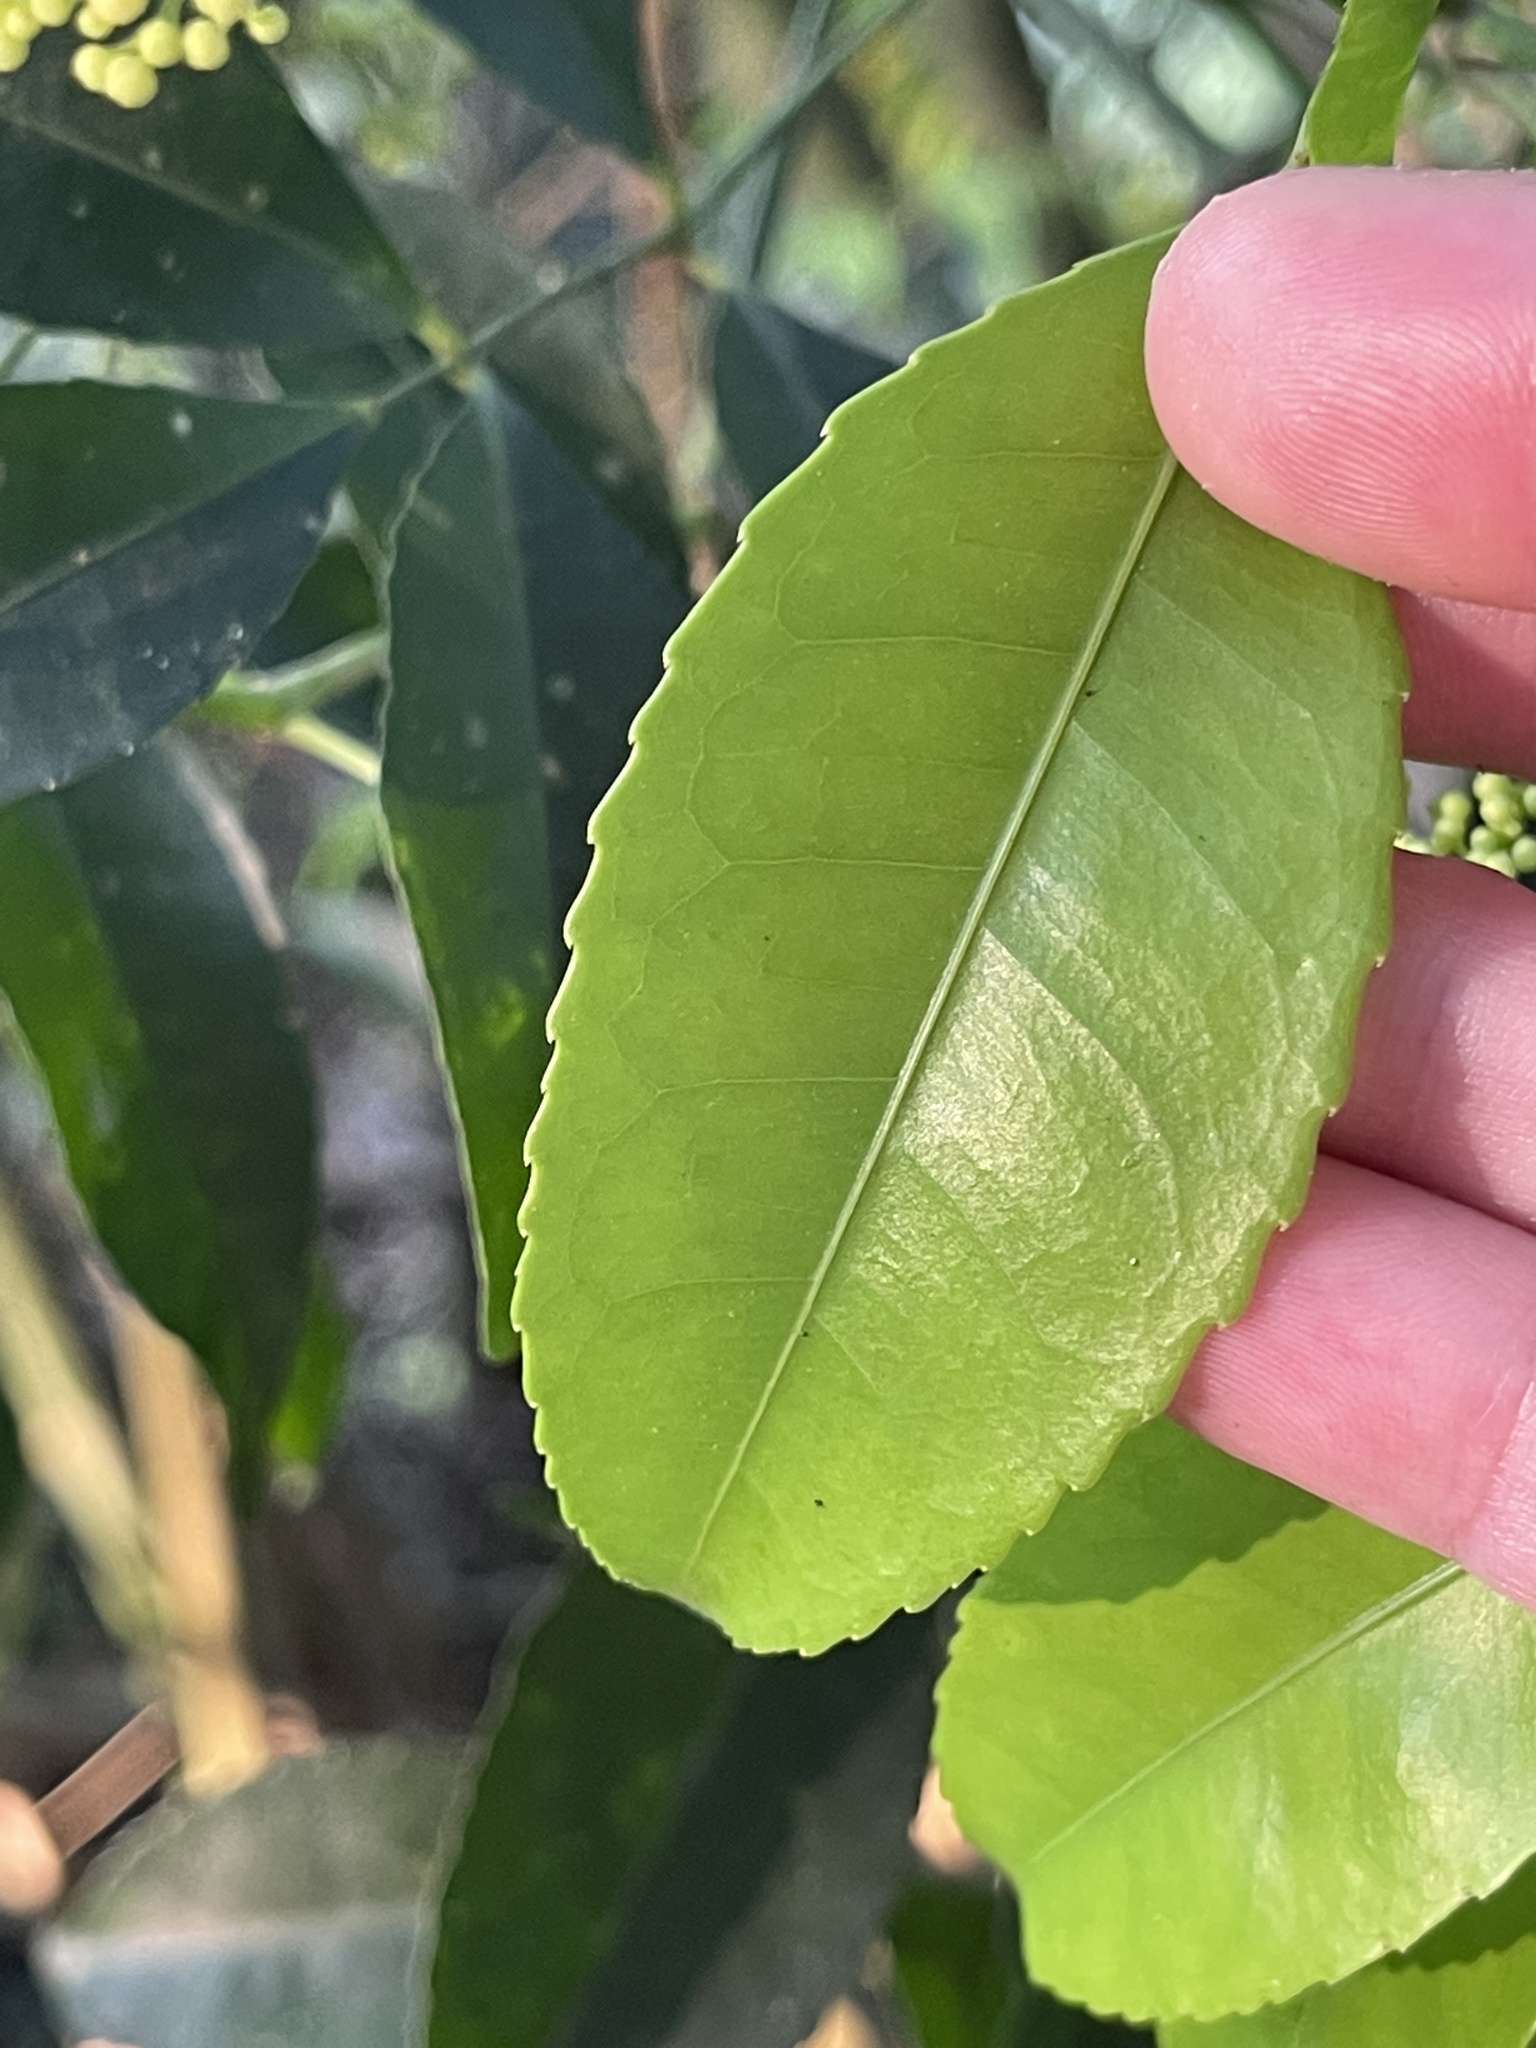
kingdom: Plantae
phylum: Tracheophyta
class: Magnoliopsida
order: Crossosomatales
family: Staphyleaceae
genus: Turpinia
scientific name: Turpinia montana
